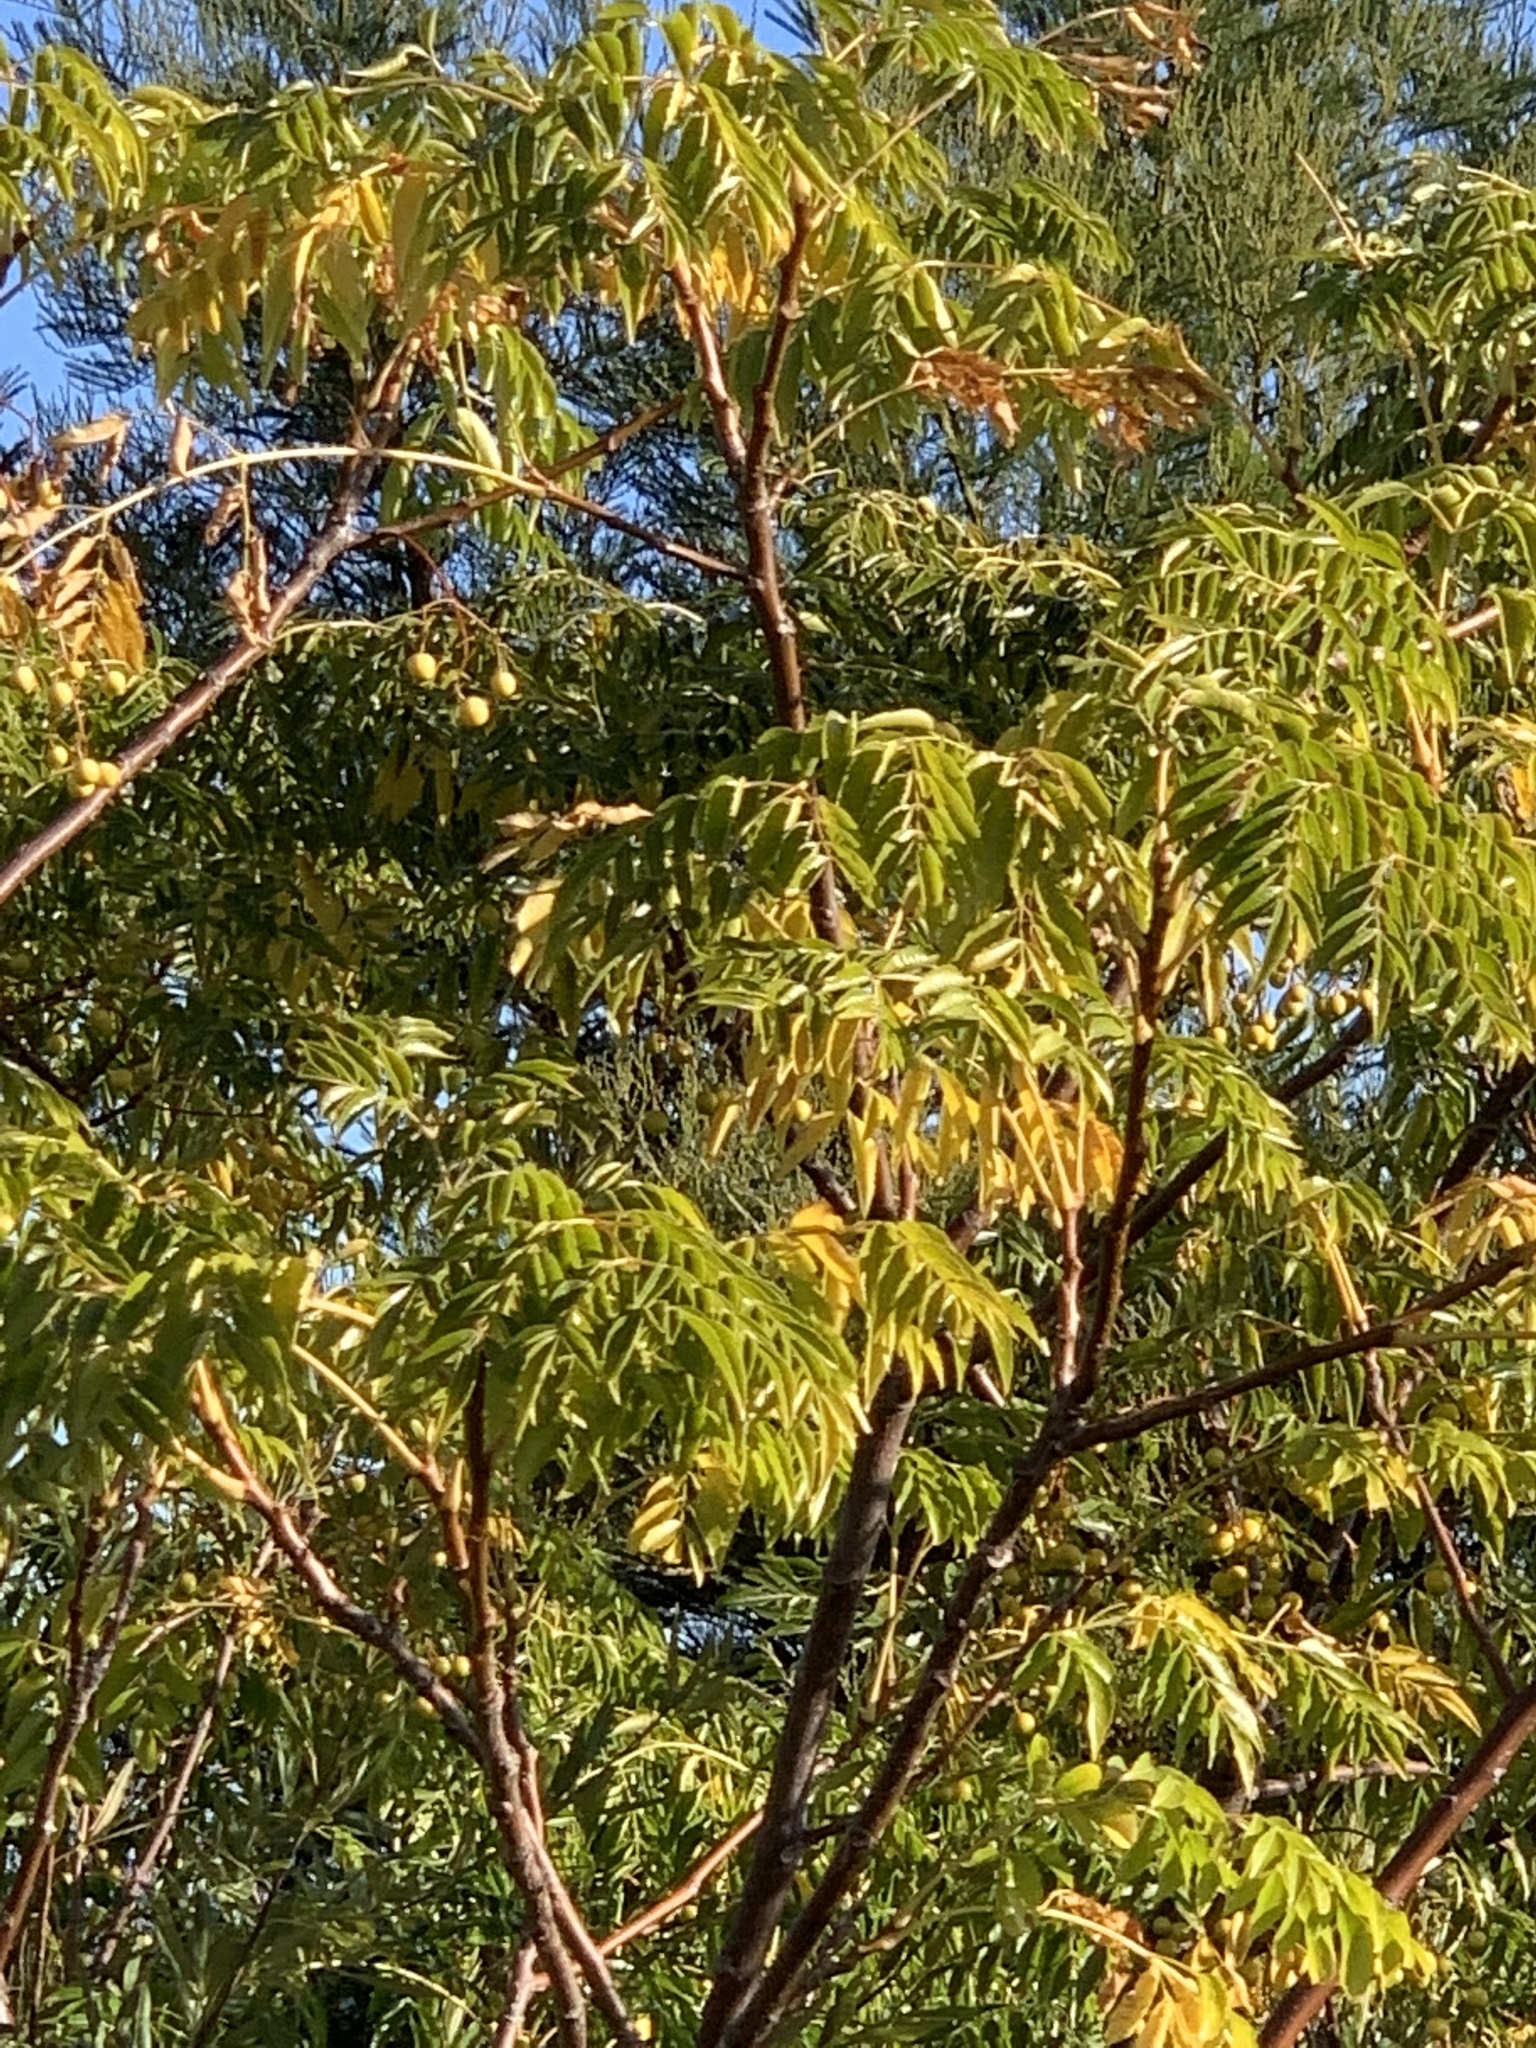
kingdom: Plantae
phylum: Tracheophyta
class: Magnoliopsida
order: Sapindales
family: Meliaceae
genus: Melia
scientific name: Melia azedarach
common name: Chinaberrytree
